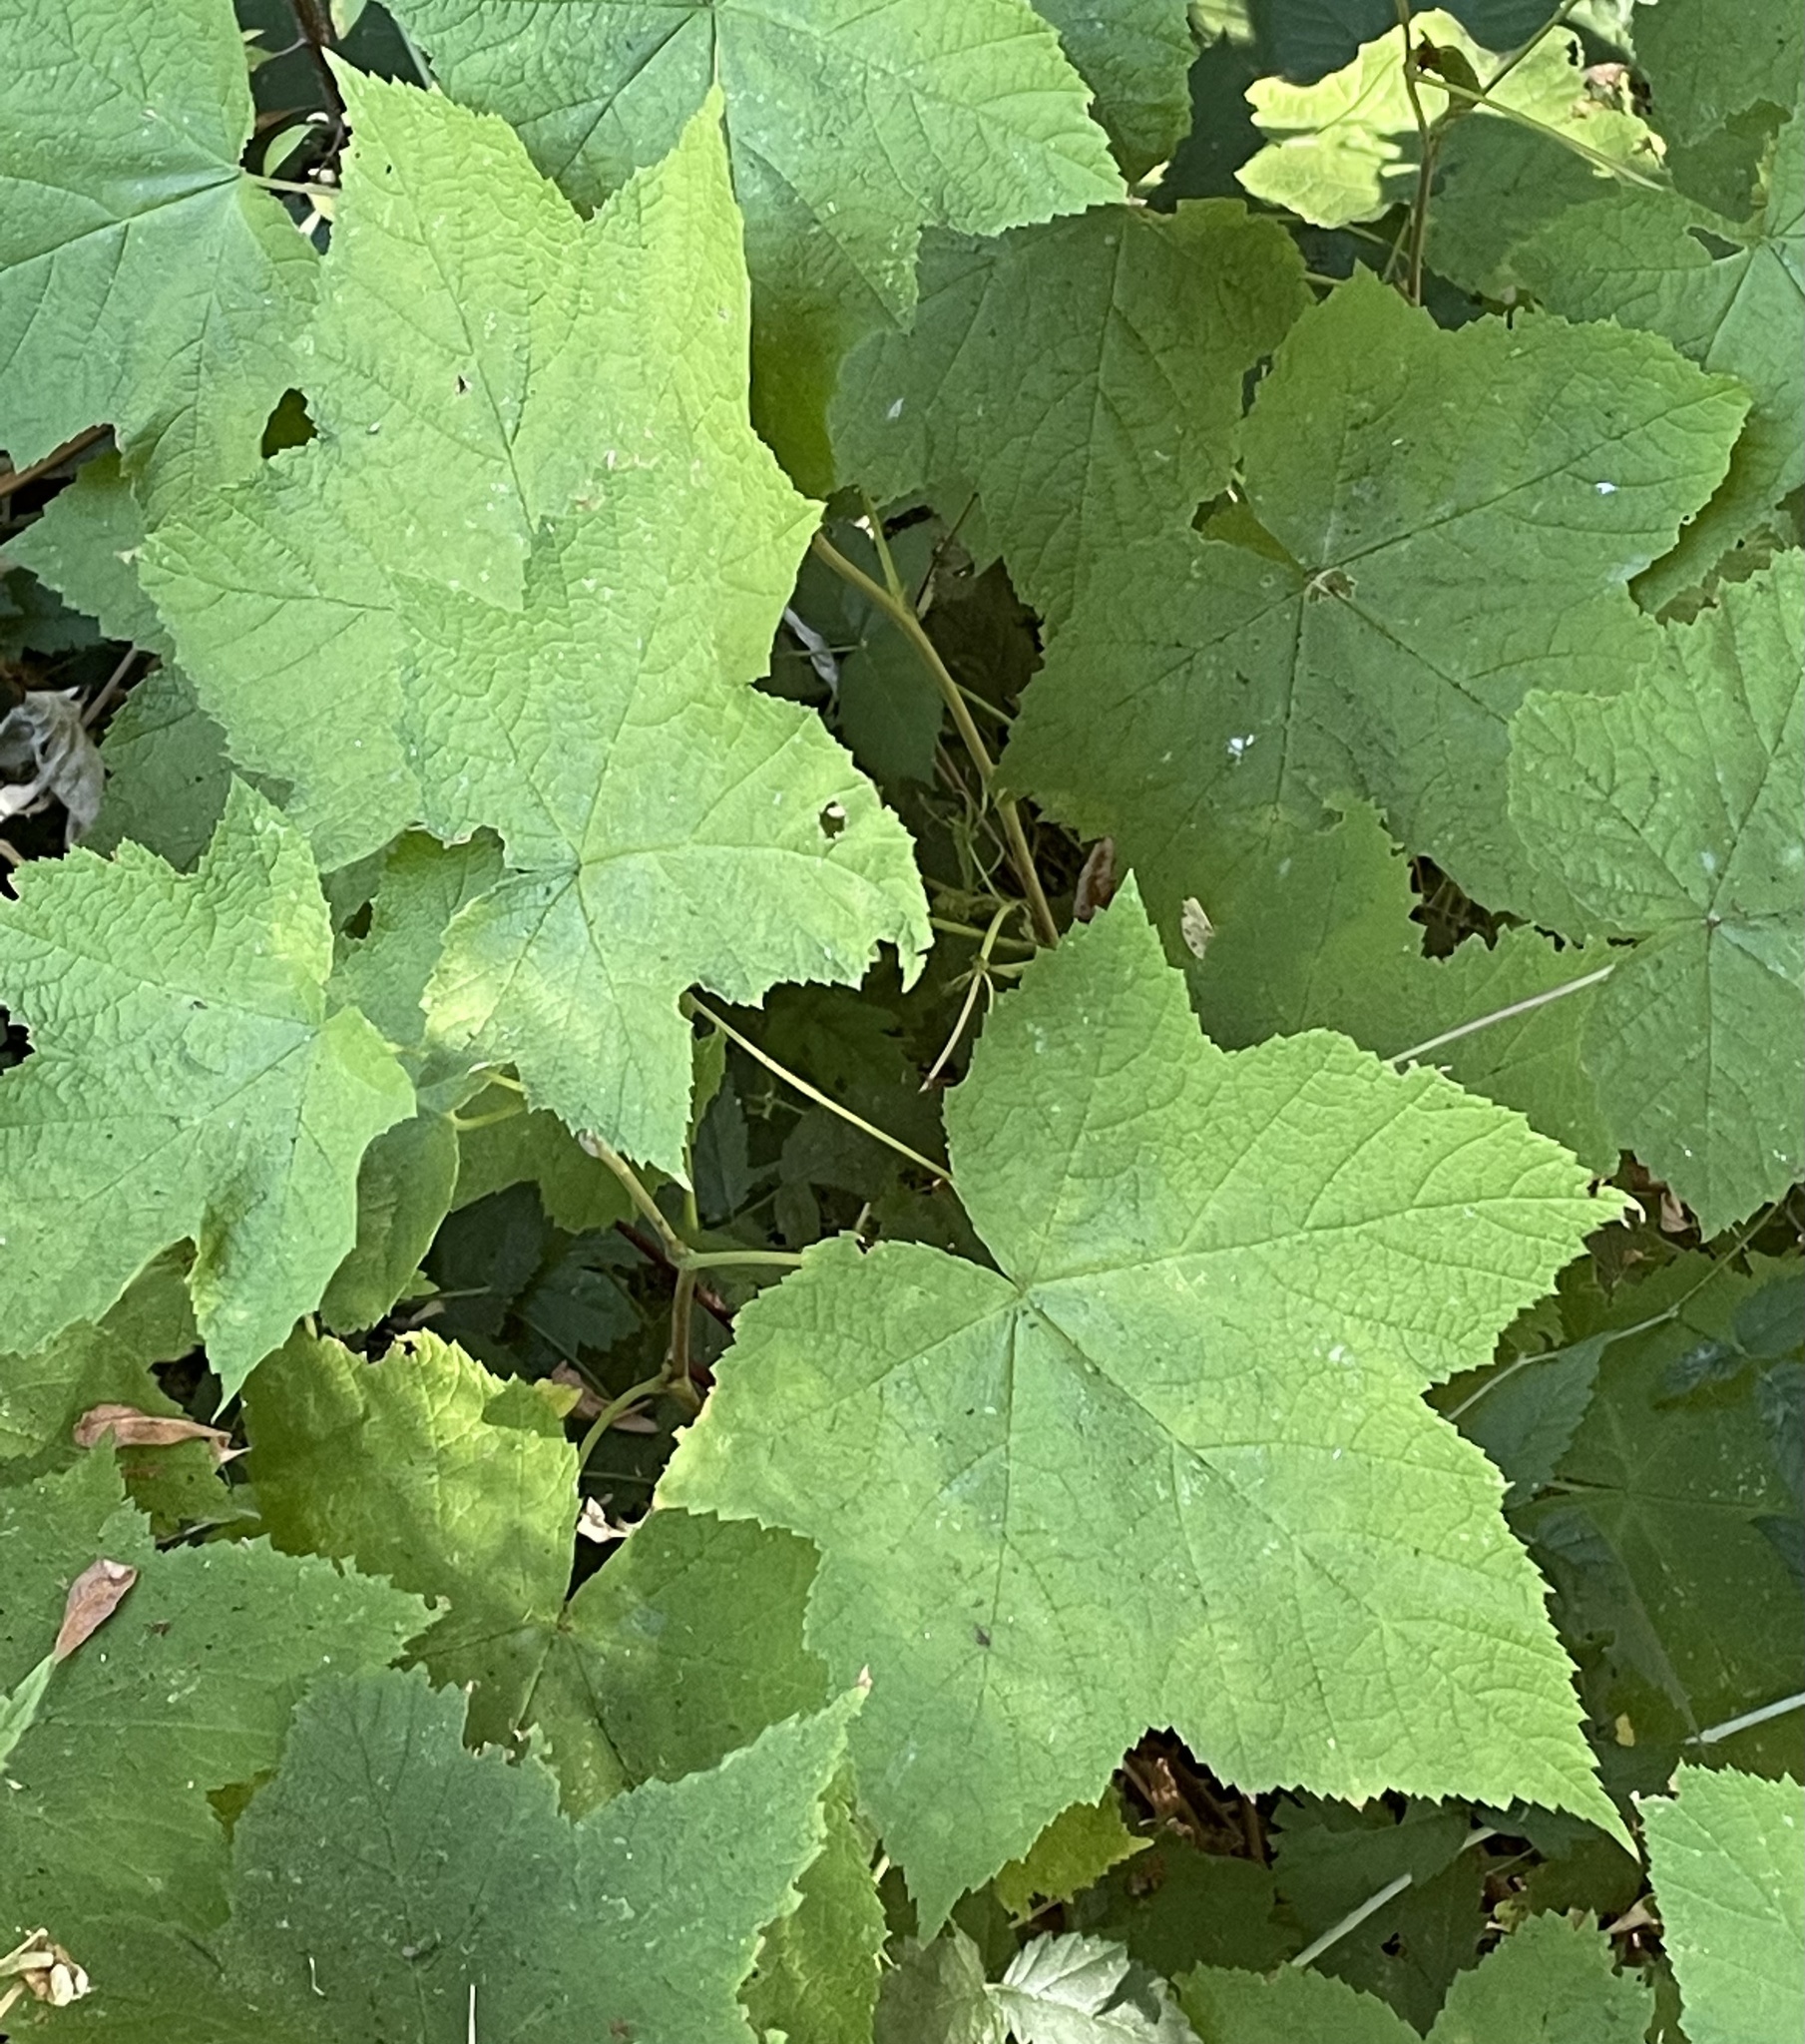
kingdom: Plantae
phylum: Tracheophyta
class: Magnoliopsida
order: Rosales
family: Rosaceae
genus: Rubus
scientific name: Rubus parviflorus
